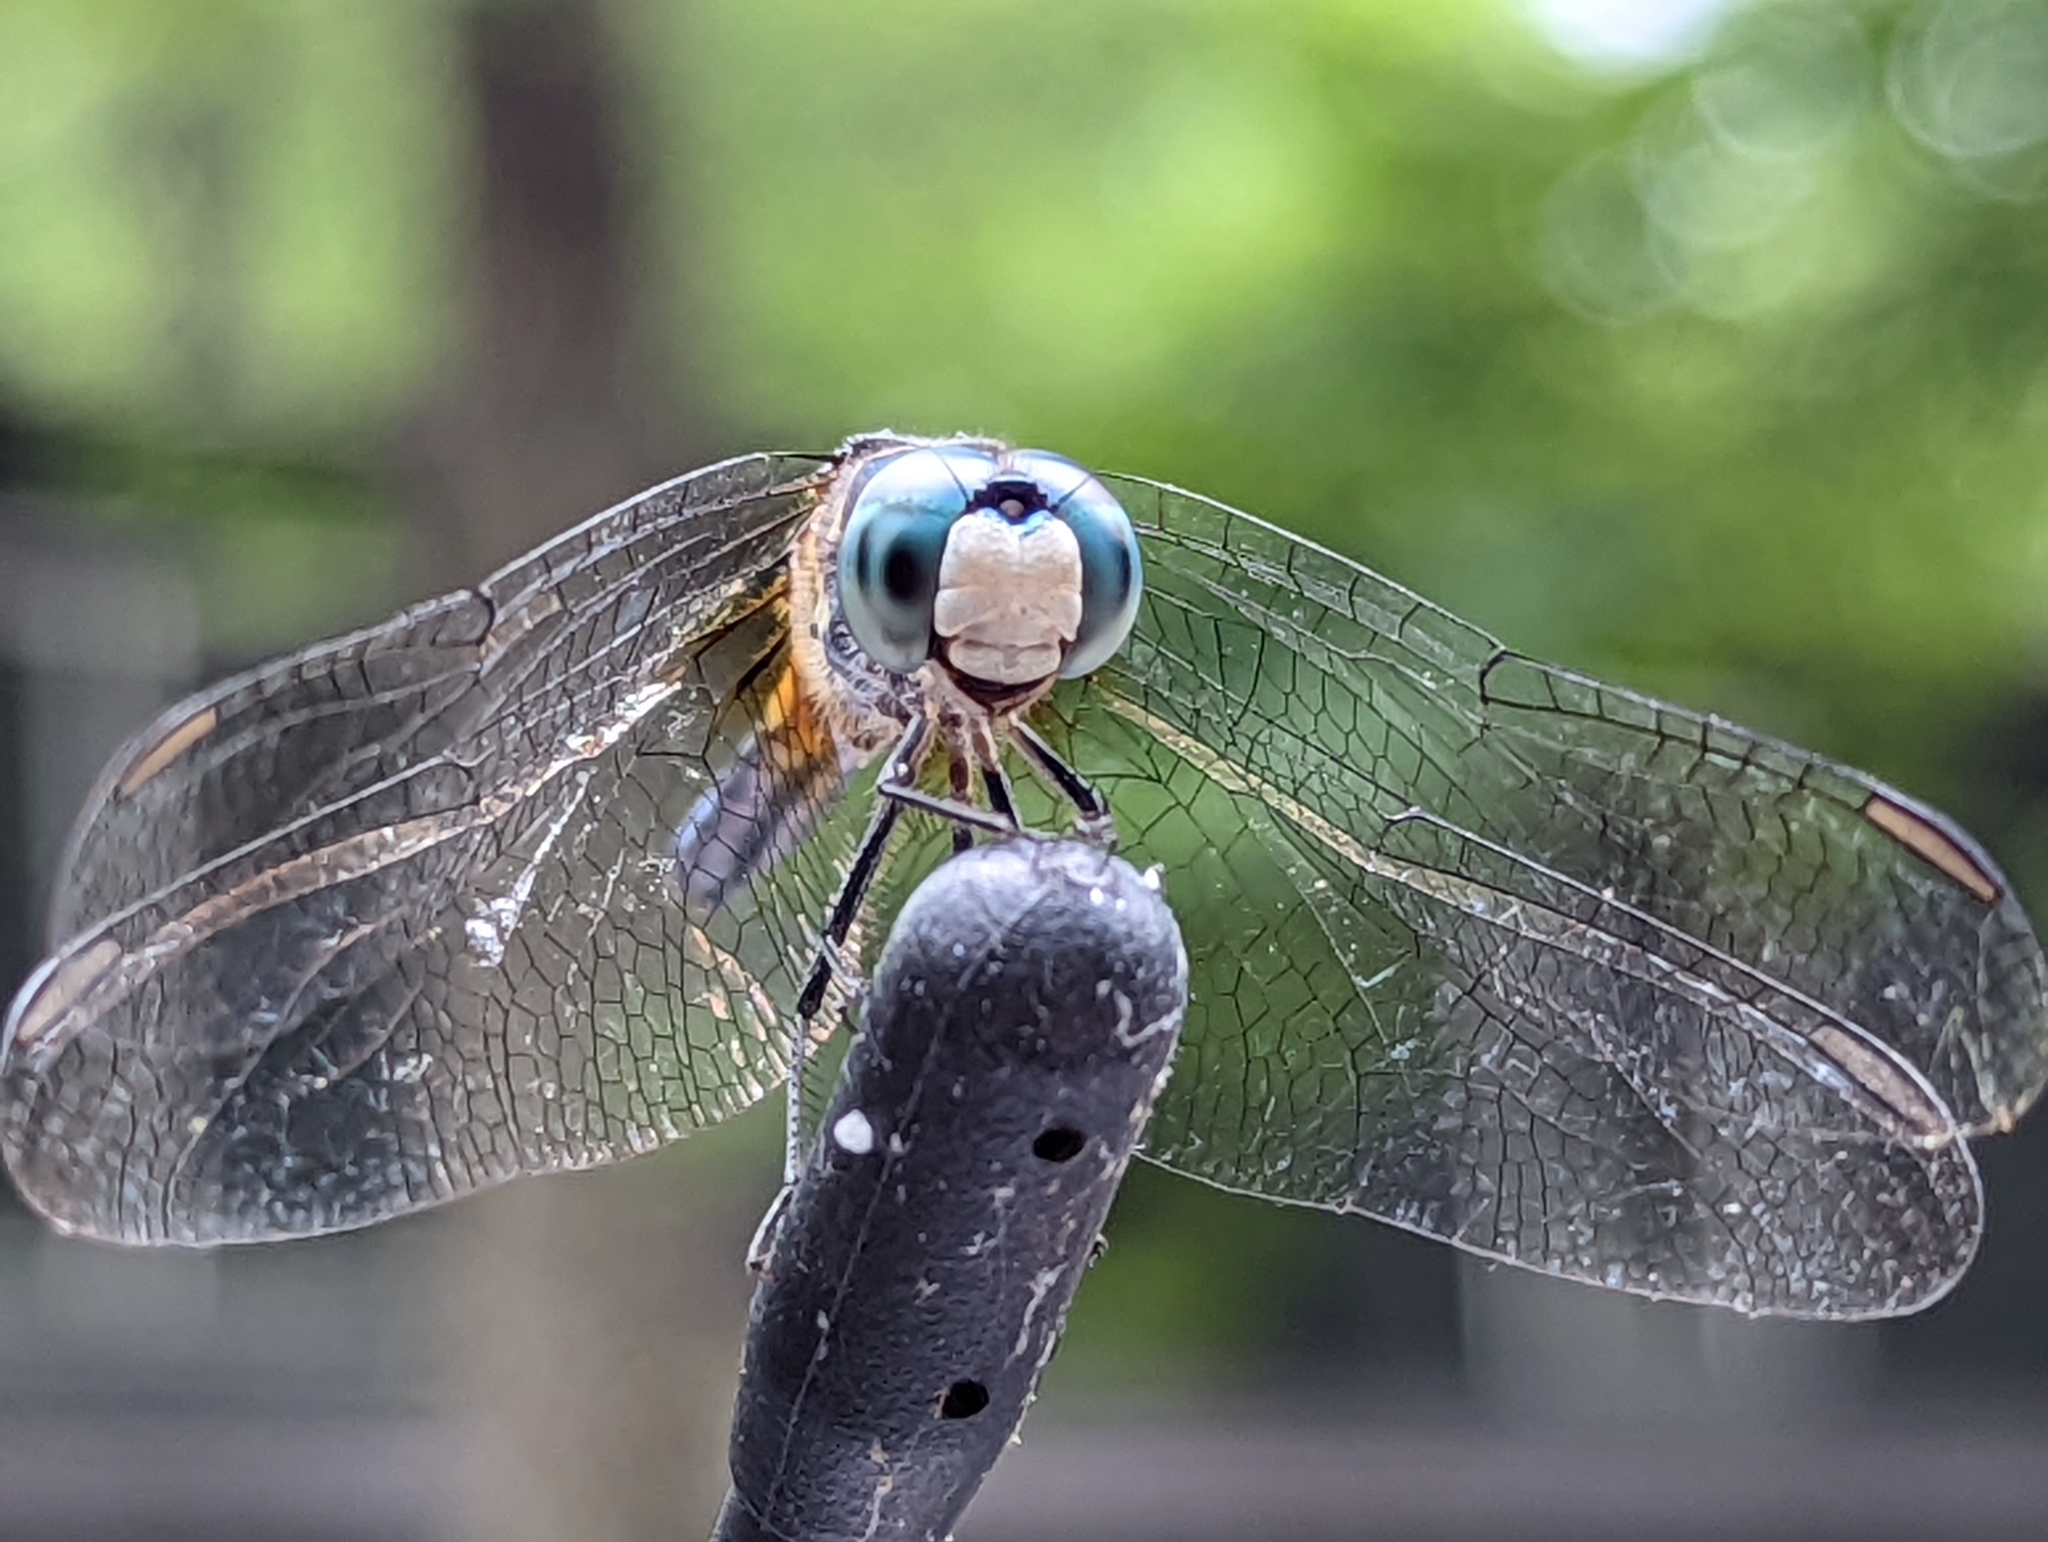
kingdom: Animalia
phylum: Arthropoda
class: Insecta
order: Odonata
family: Libellulidae
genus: Pachydiplax
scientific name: Pachydiplax longipennis
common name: Blue dasher
